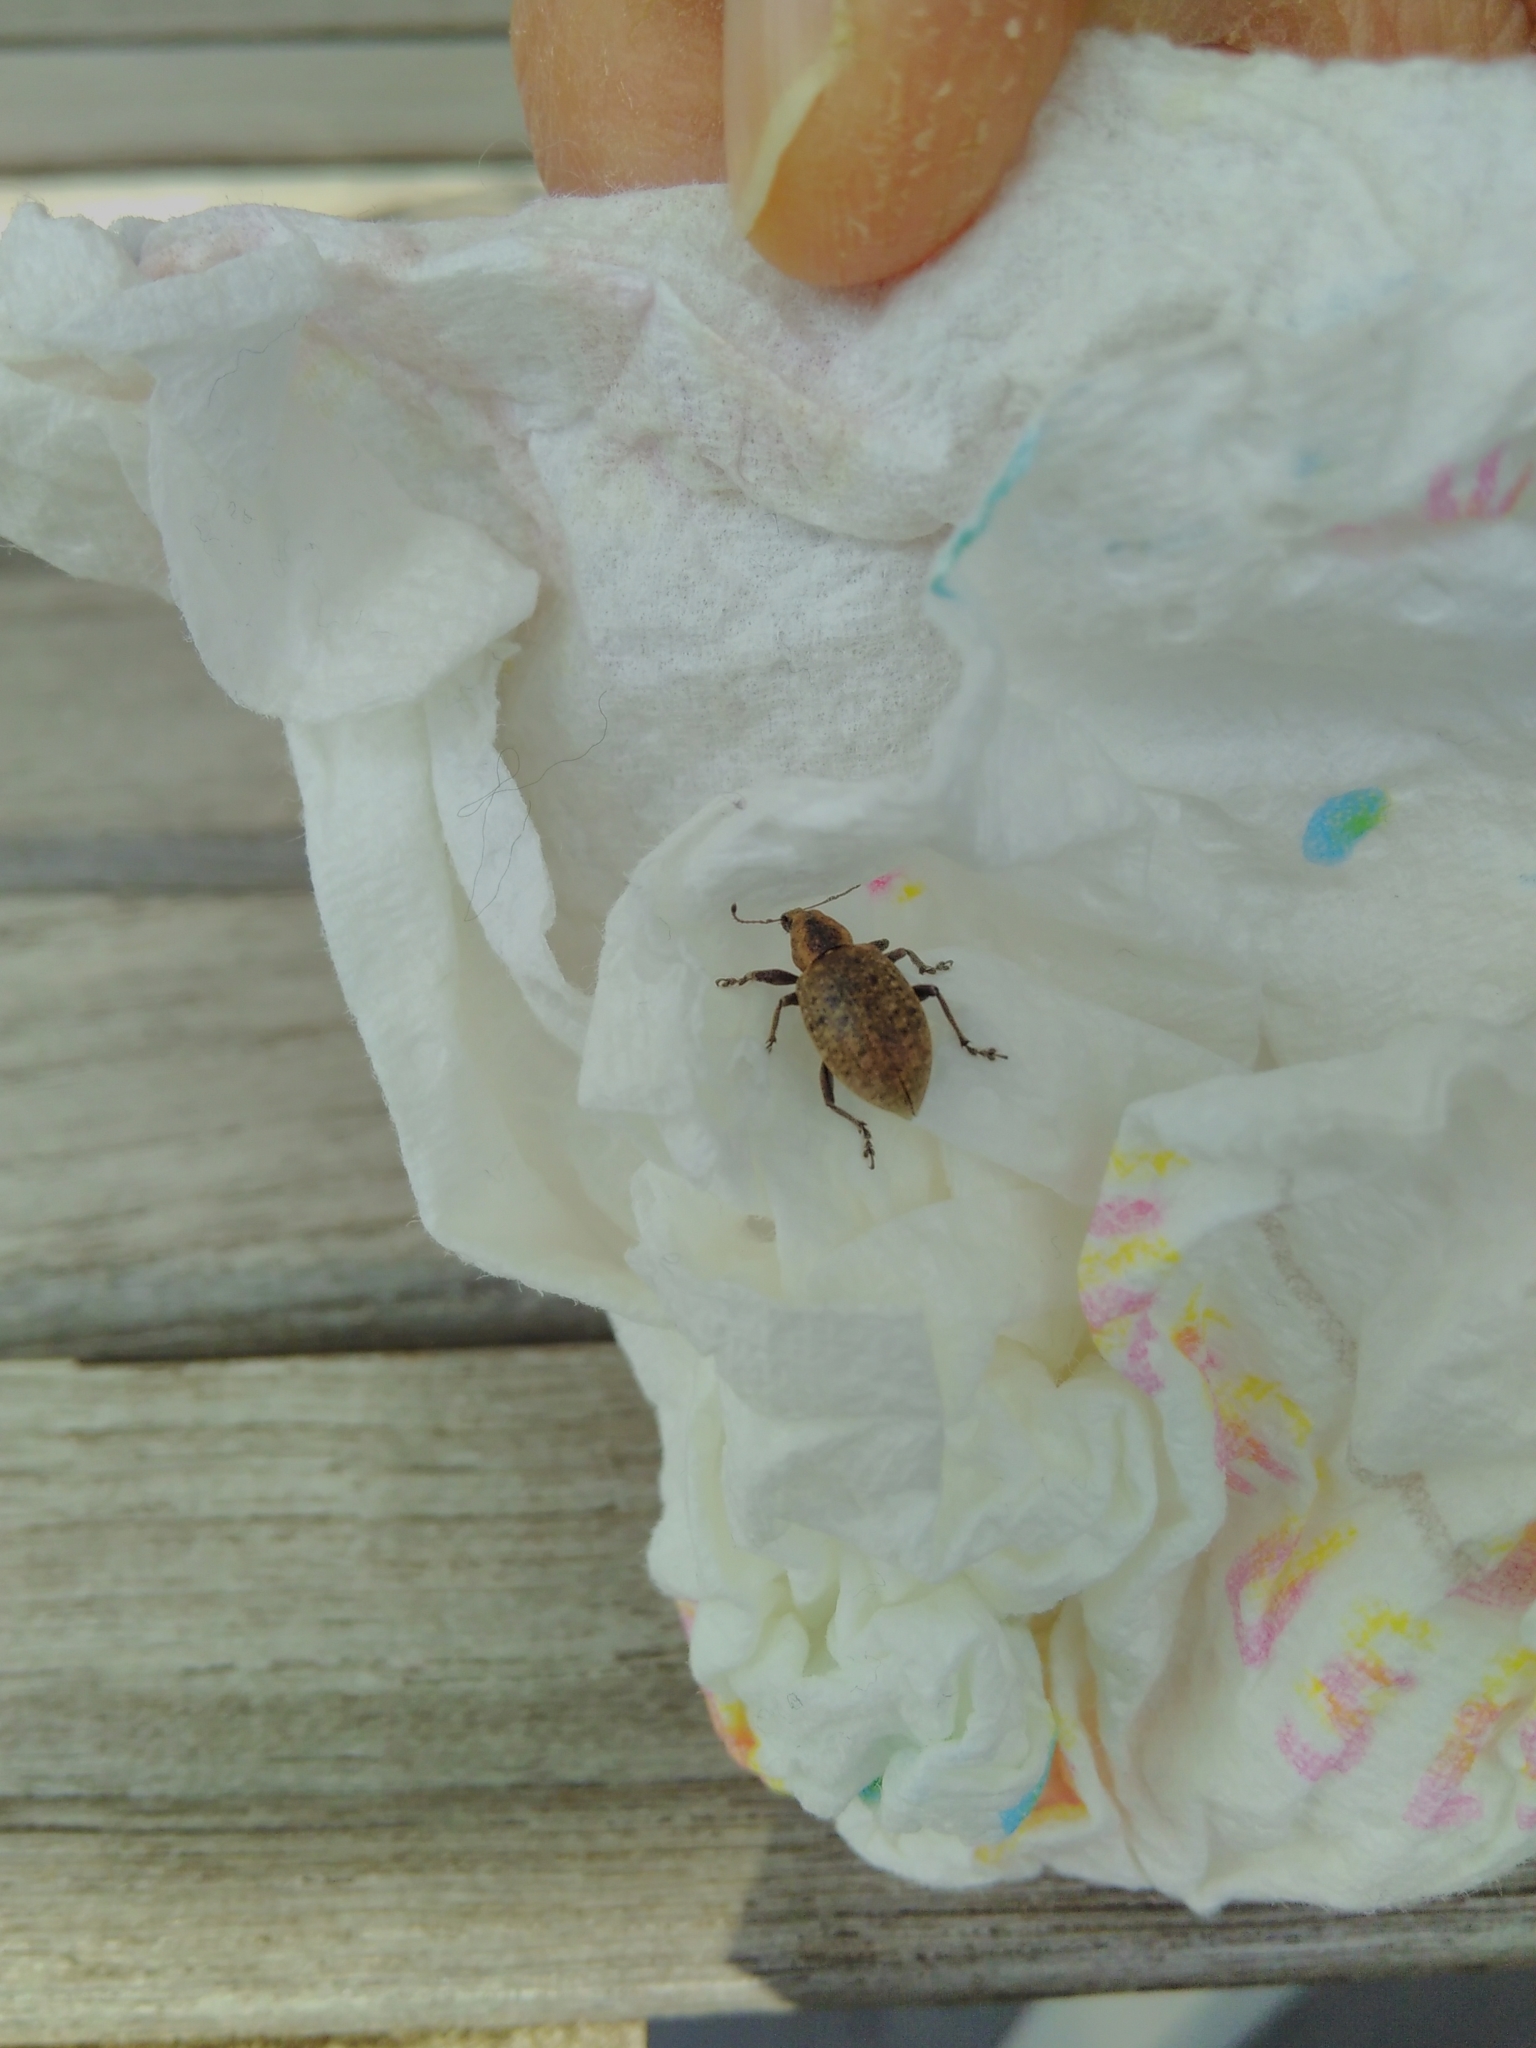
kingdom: Animalia
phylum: Arthropoda
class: Insecta
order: Coleoptera
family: Curculionidae
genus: Liophloeus
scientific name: Liophloeus tessulatus
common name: Weevil
